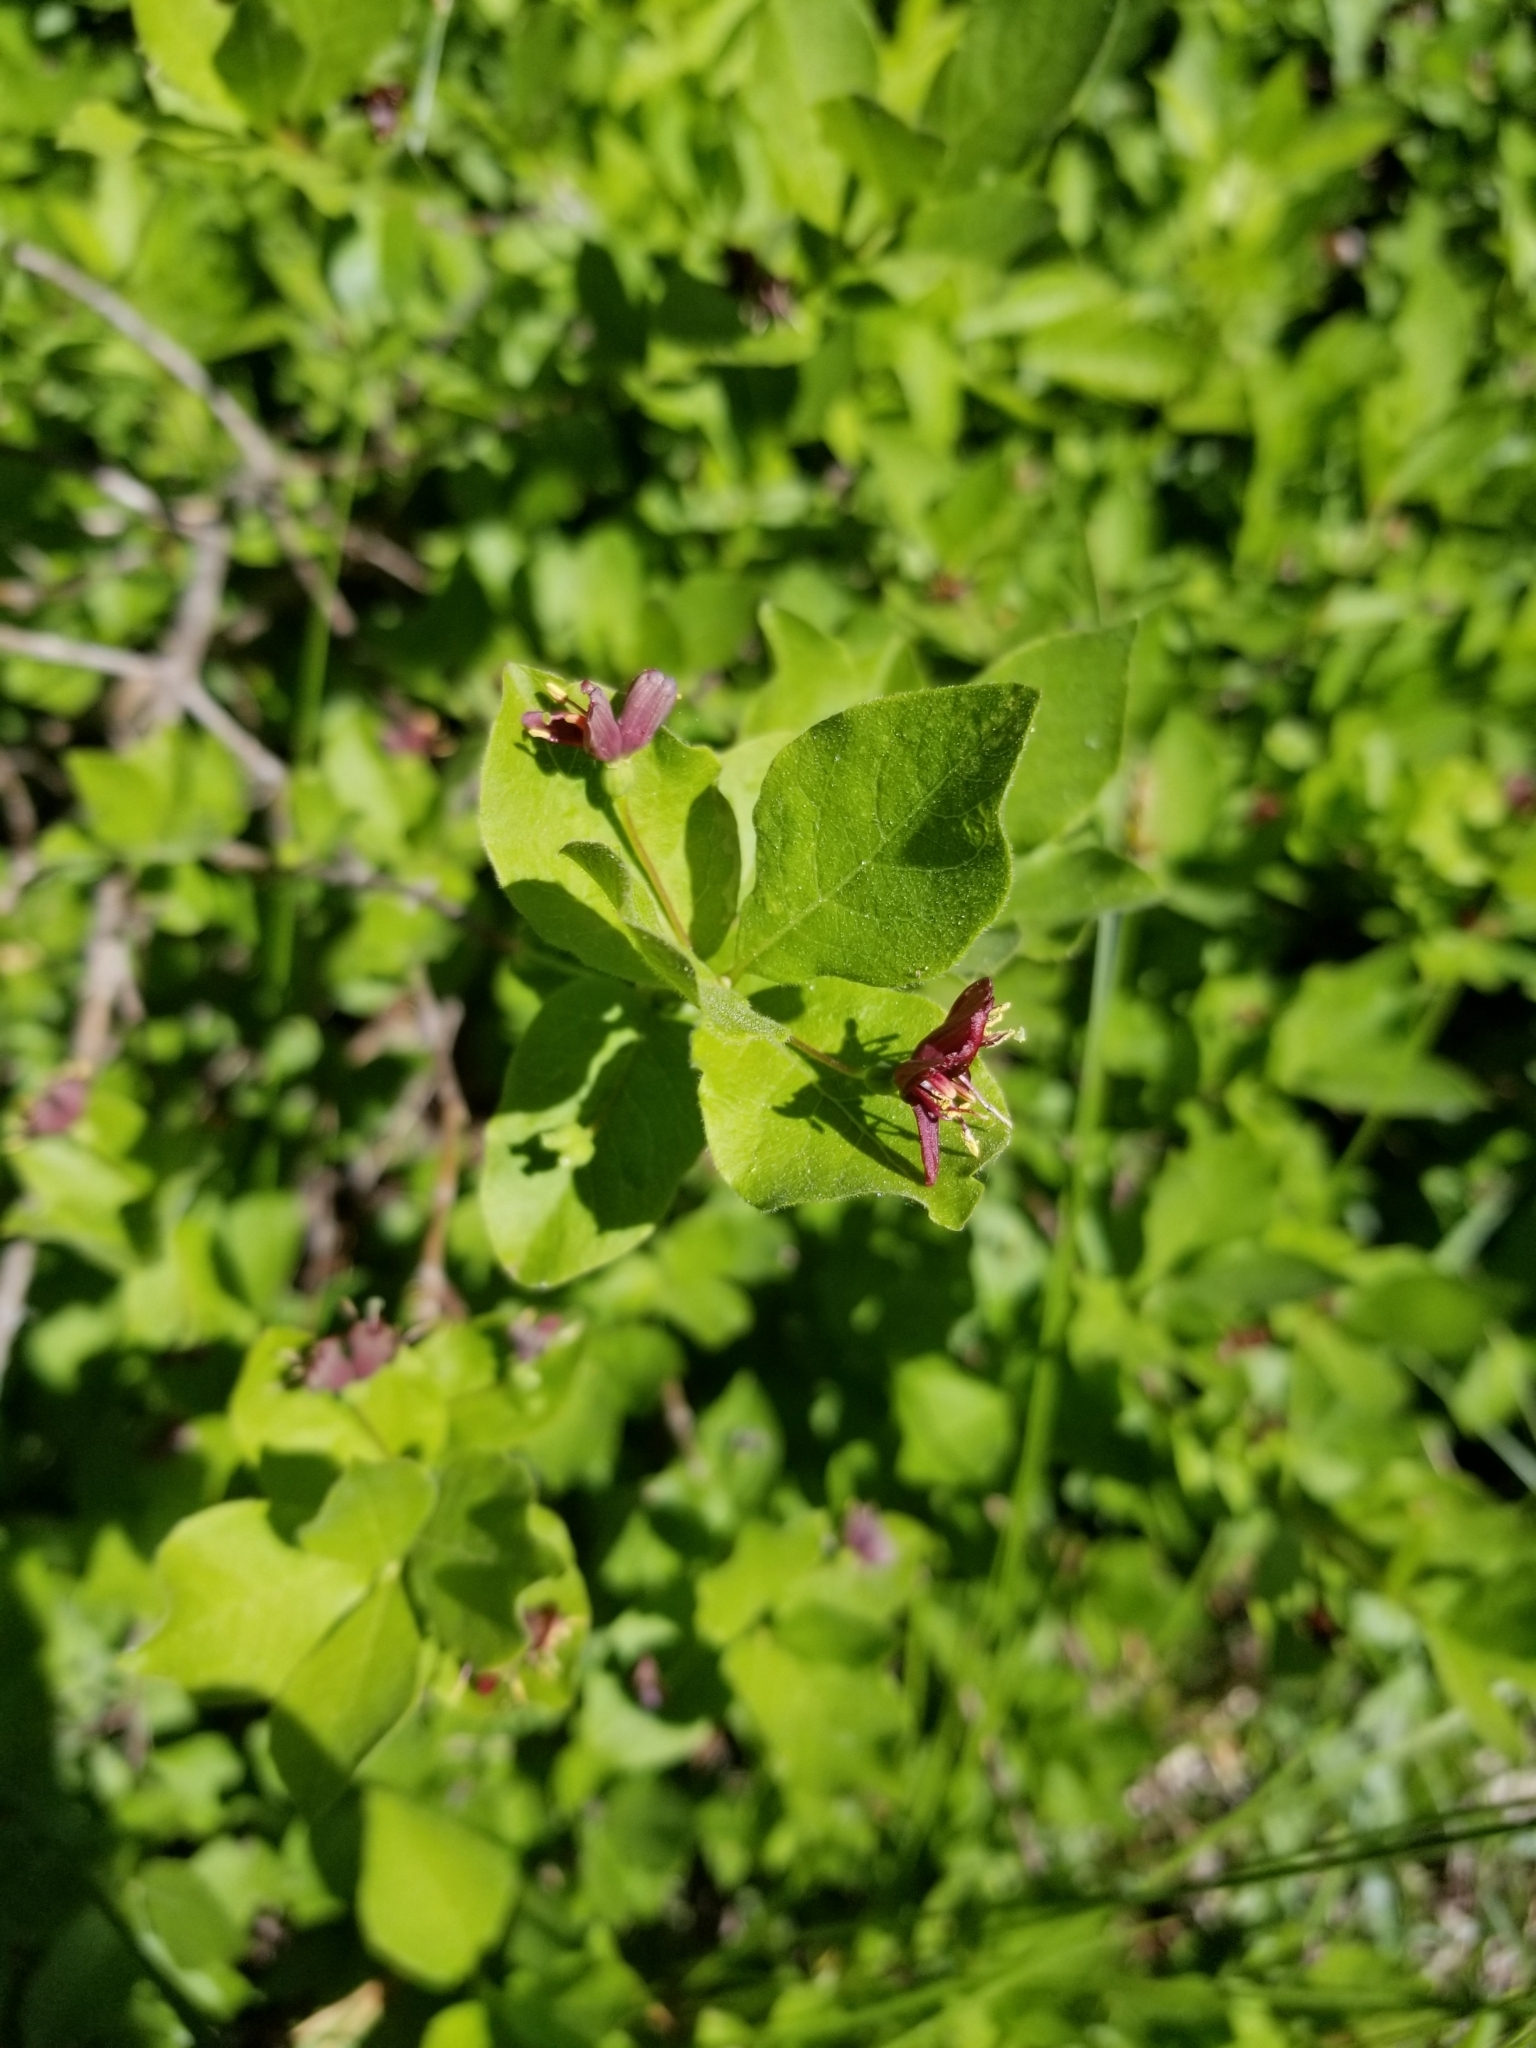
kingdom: Plantae
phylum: Tracheophyta
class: Magnoliopsida
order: Dipsacales
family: Caprifoliaceae
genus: Lonicera
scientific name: Lonicera conjugialis
